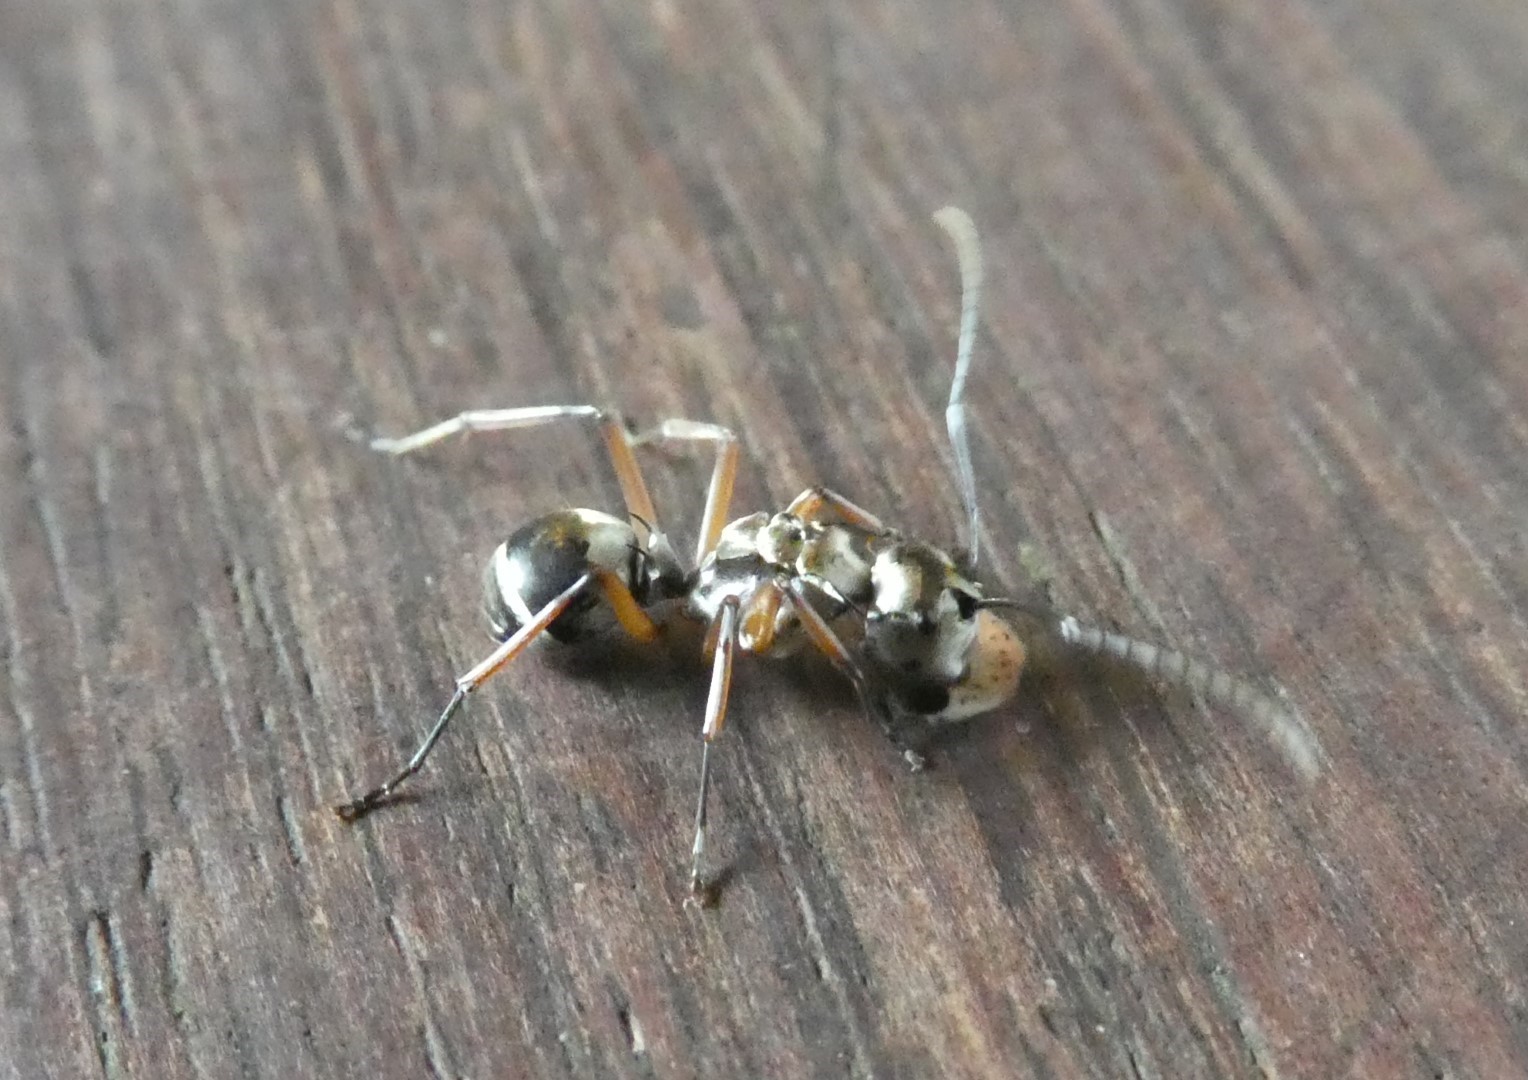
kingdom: Animalia
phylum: Arthropoda
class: Insecta
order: Hymenoptera
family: Formicidae
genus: Polyrhachis
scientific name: Polyrhachis andromache
